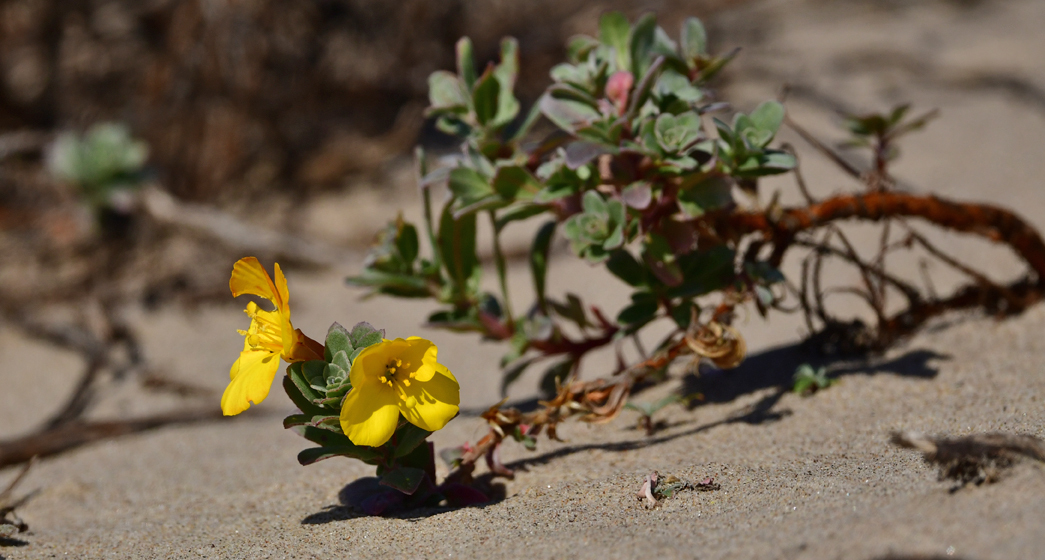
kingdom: Plantae
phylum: Tracheophyta
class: Magnoliopsida
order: Myrtales
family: Onagraceae
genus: Camissoniopsis
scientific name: Camissoniopsis cheiranthifolia
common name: Beach suncup
